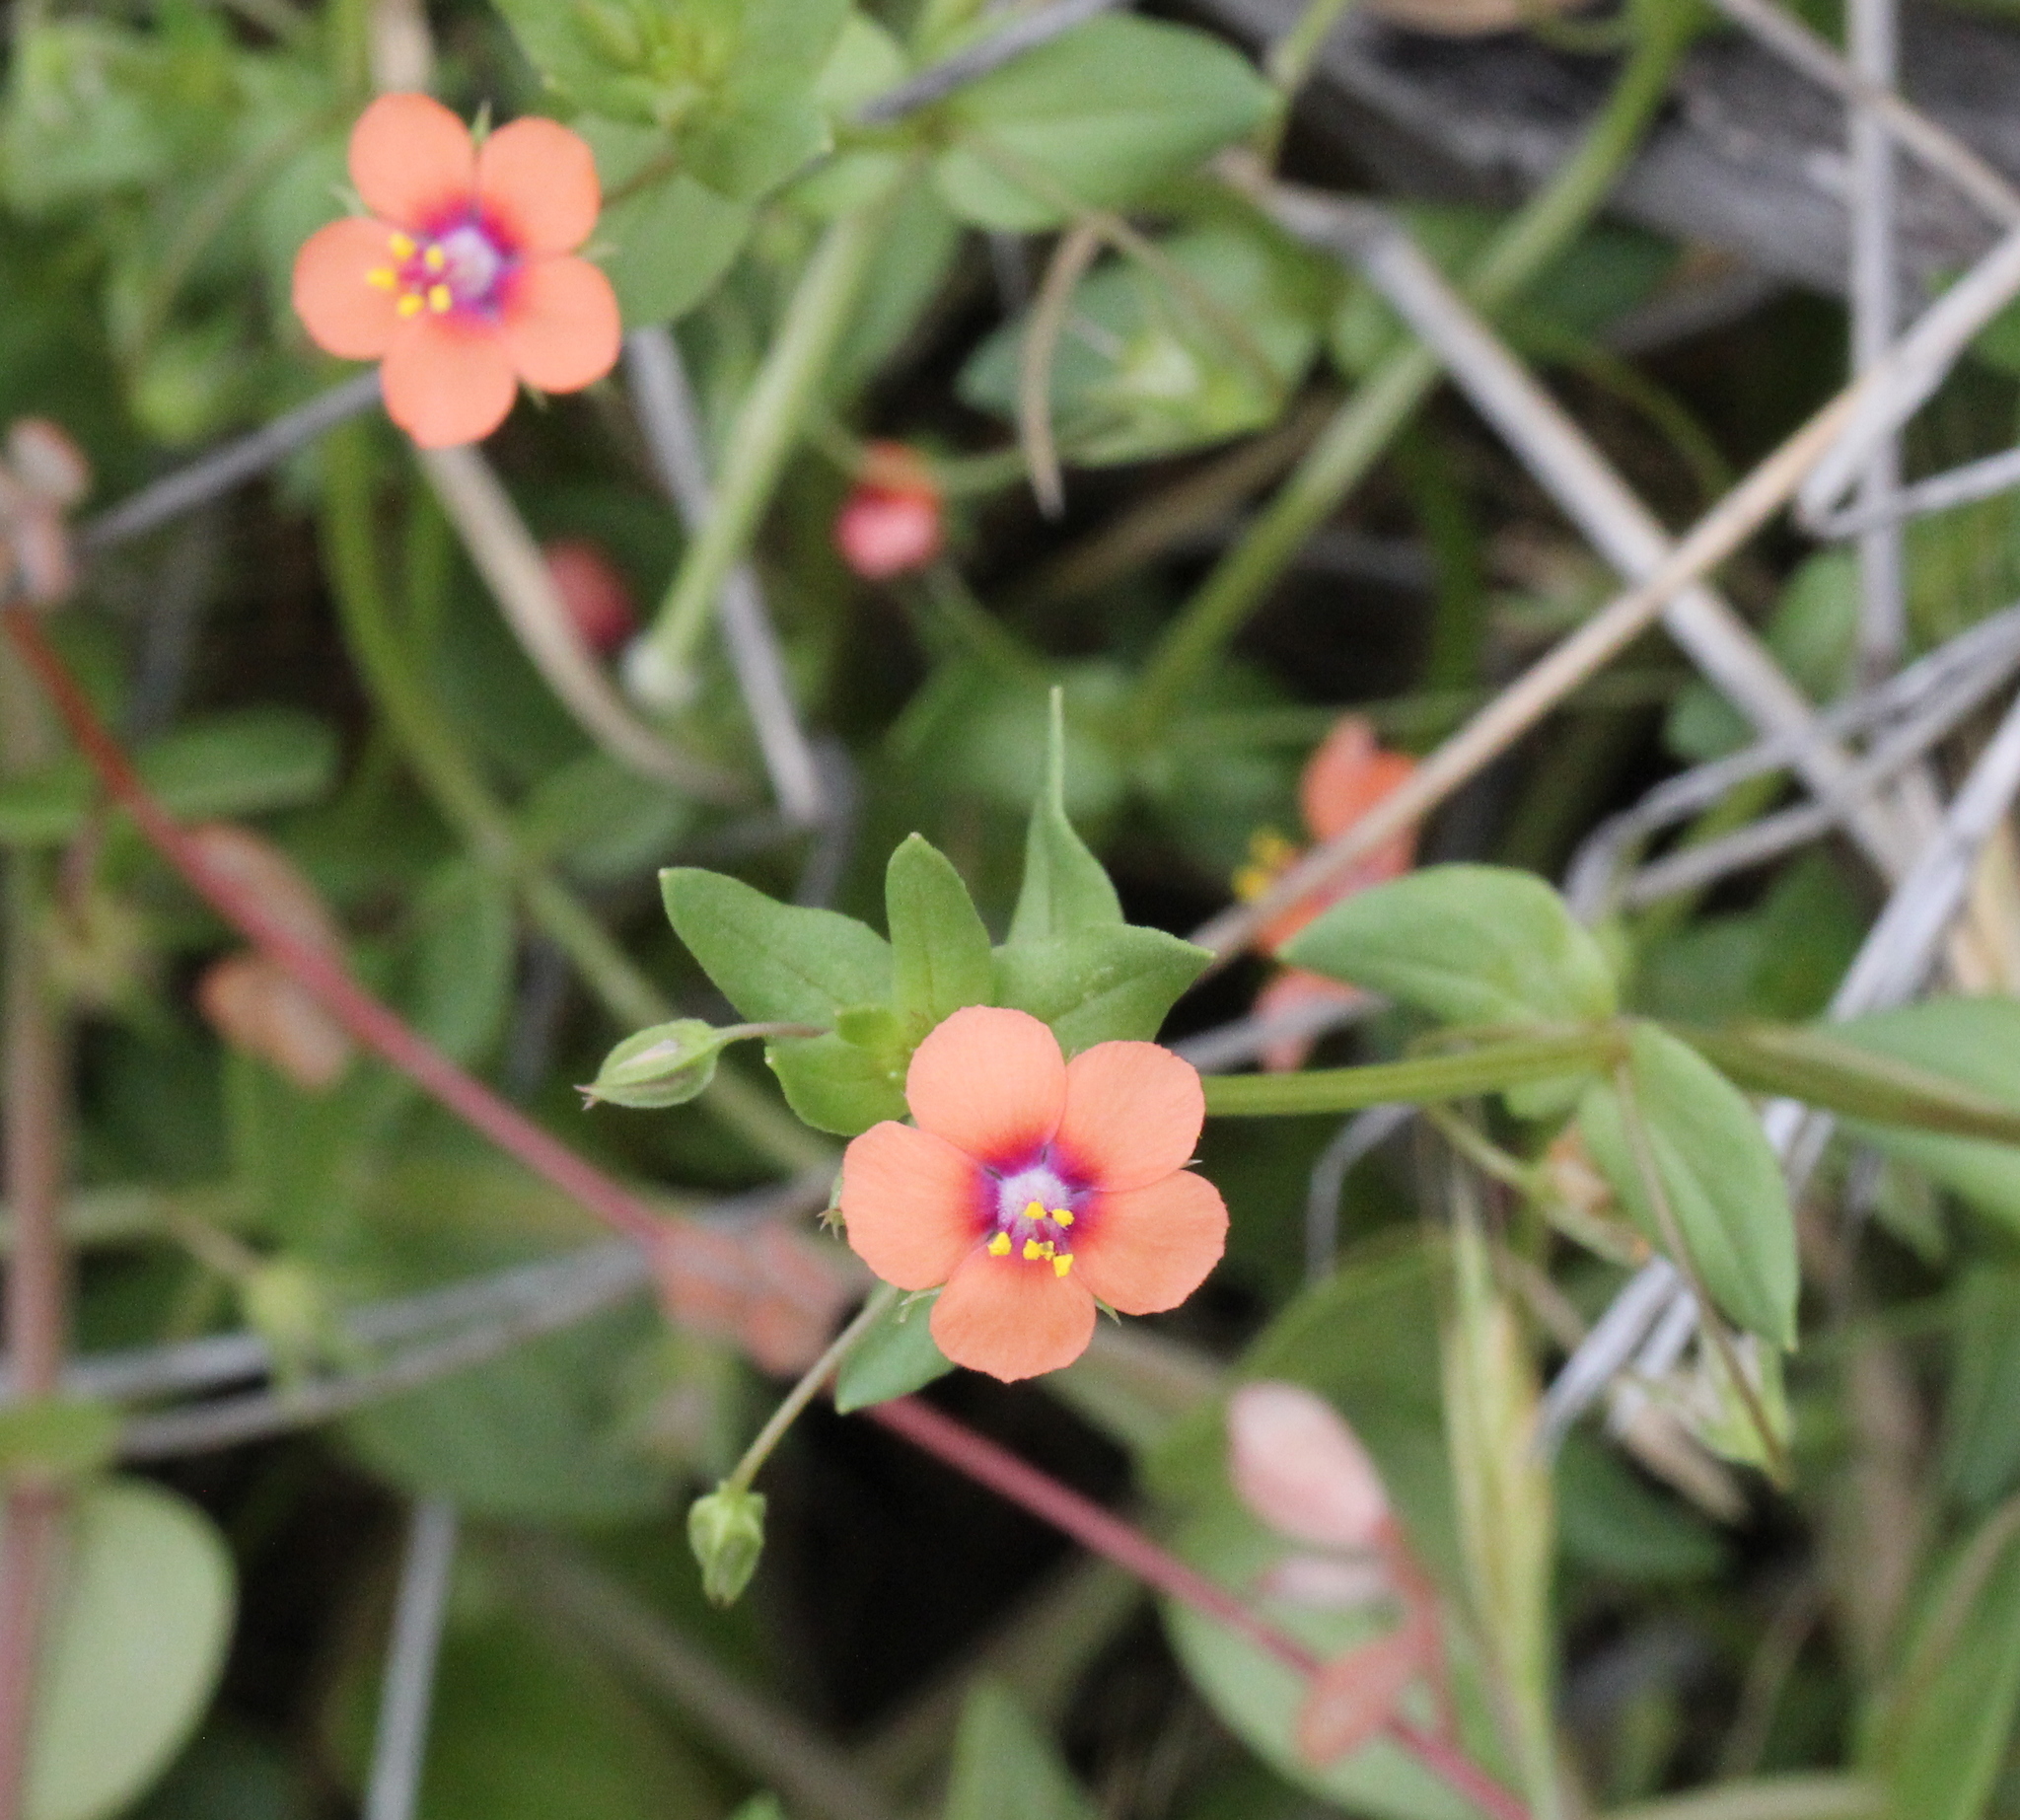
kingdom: Plantae
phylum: Tracheophyta
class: Magnoliopsida
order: Ericales
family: Primulaceae
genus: Lysimachia
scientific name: Lysimachia arvensis
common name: Scarlet pimpernel
